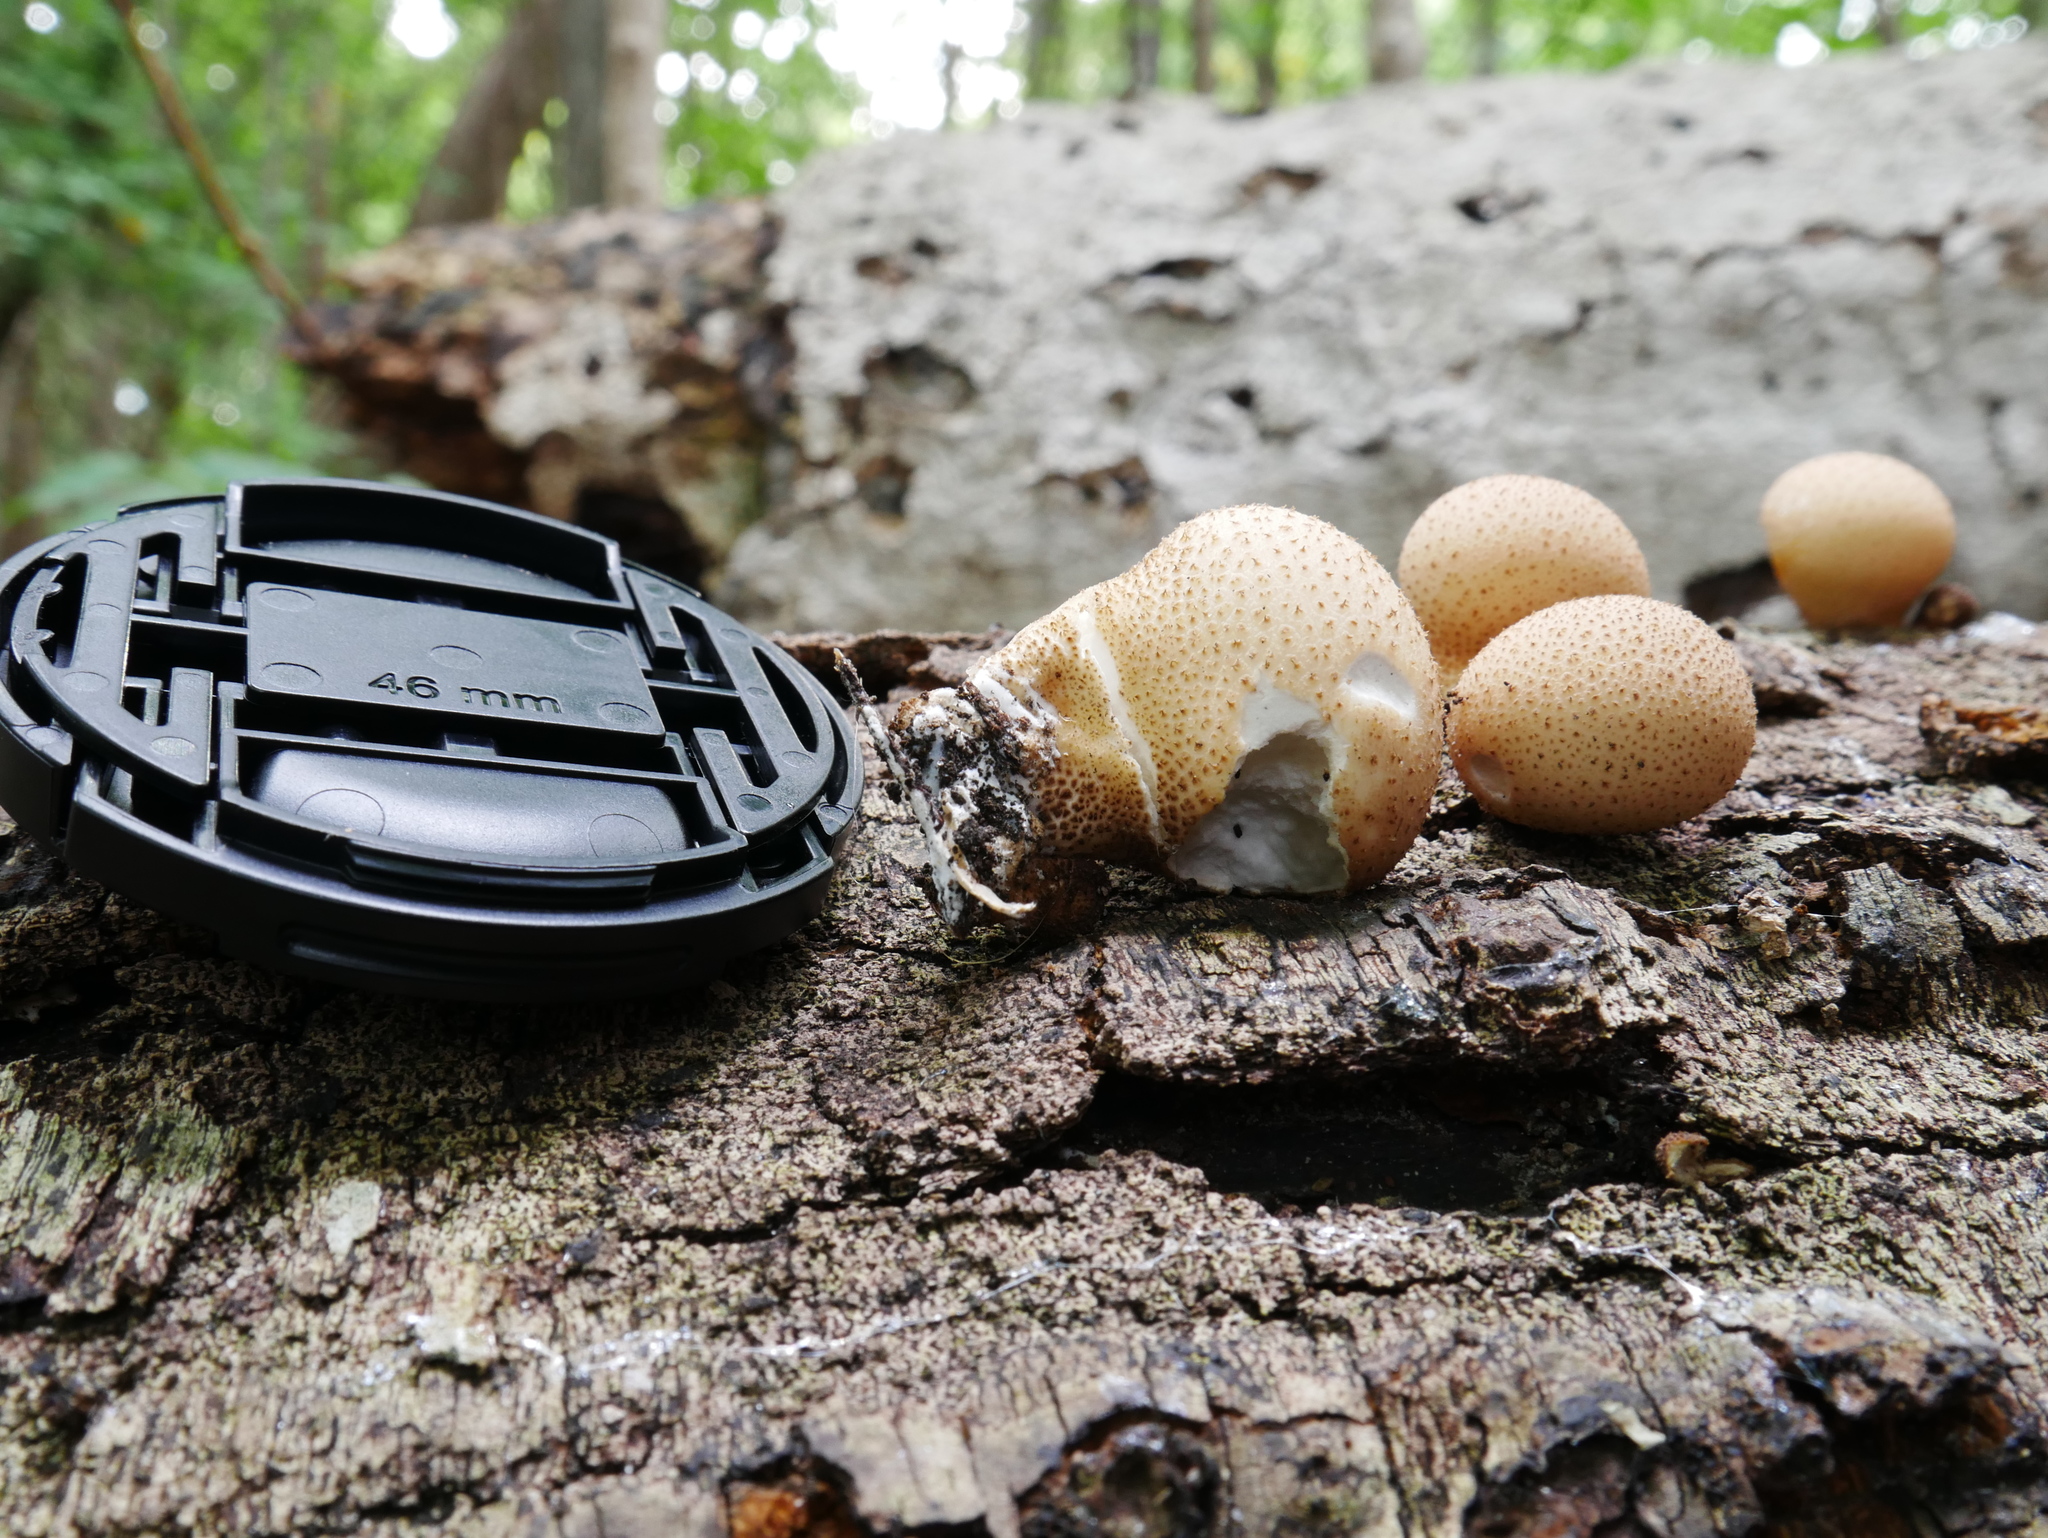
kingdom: Fungi
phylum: Basidiomycota
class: Agaricomycetes
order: Agaricales
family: Lycoperdaceae
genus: Apioperdon
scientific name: Apioperdon pyriforme
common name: Pear-shaped puffball
